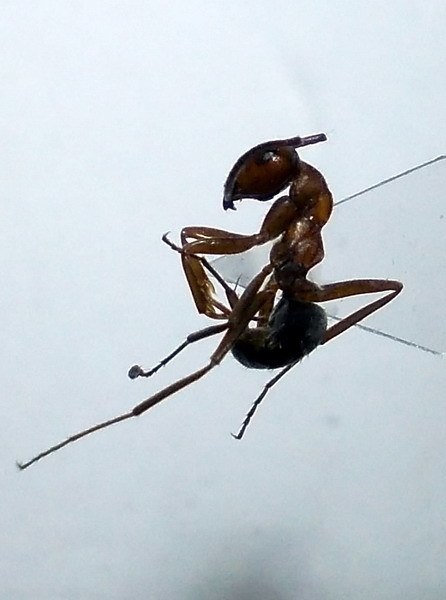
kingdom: Animalia
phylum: Arthropoda
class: Insecta
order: Hymenoptera
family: Formicidae
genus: Formica
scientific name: Formica subpilosa
